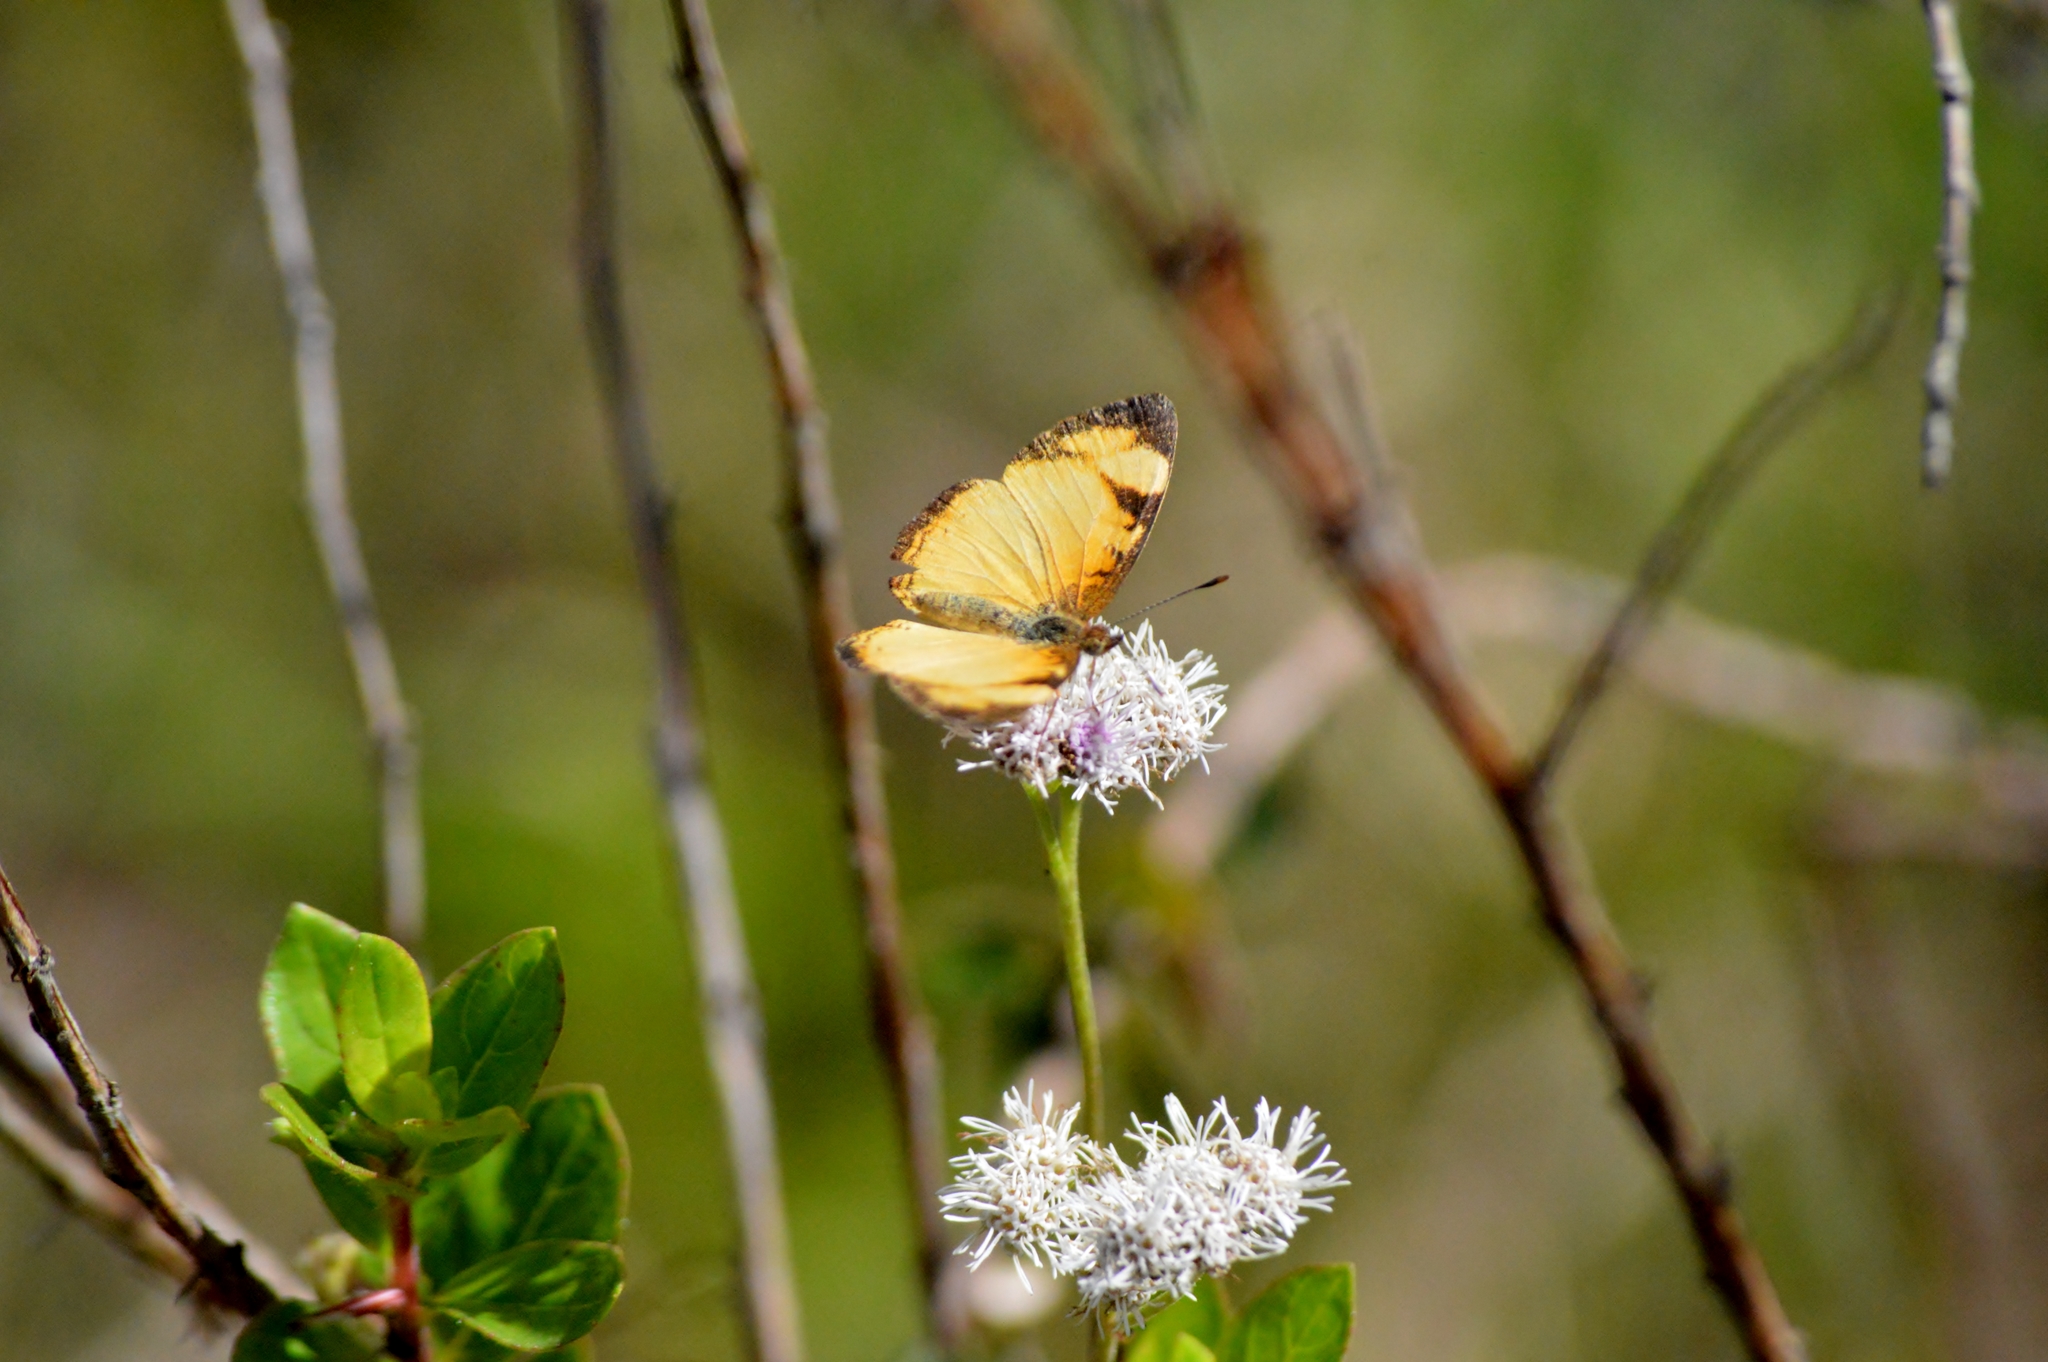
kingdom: Animalia
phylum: Arthropoda
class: Insecta
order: Lepidoptera
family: Nymphalidae
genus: Tegosa
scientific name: Tegosa claudina
